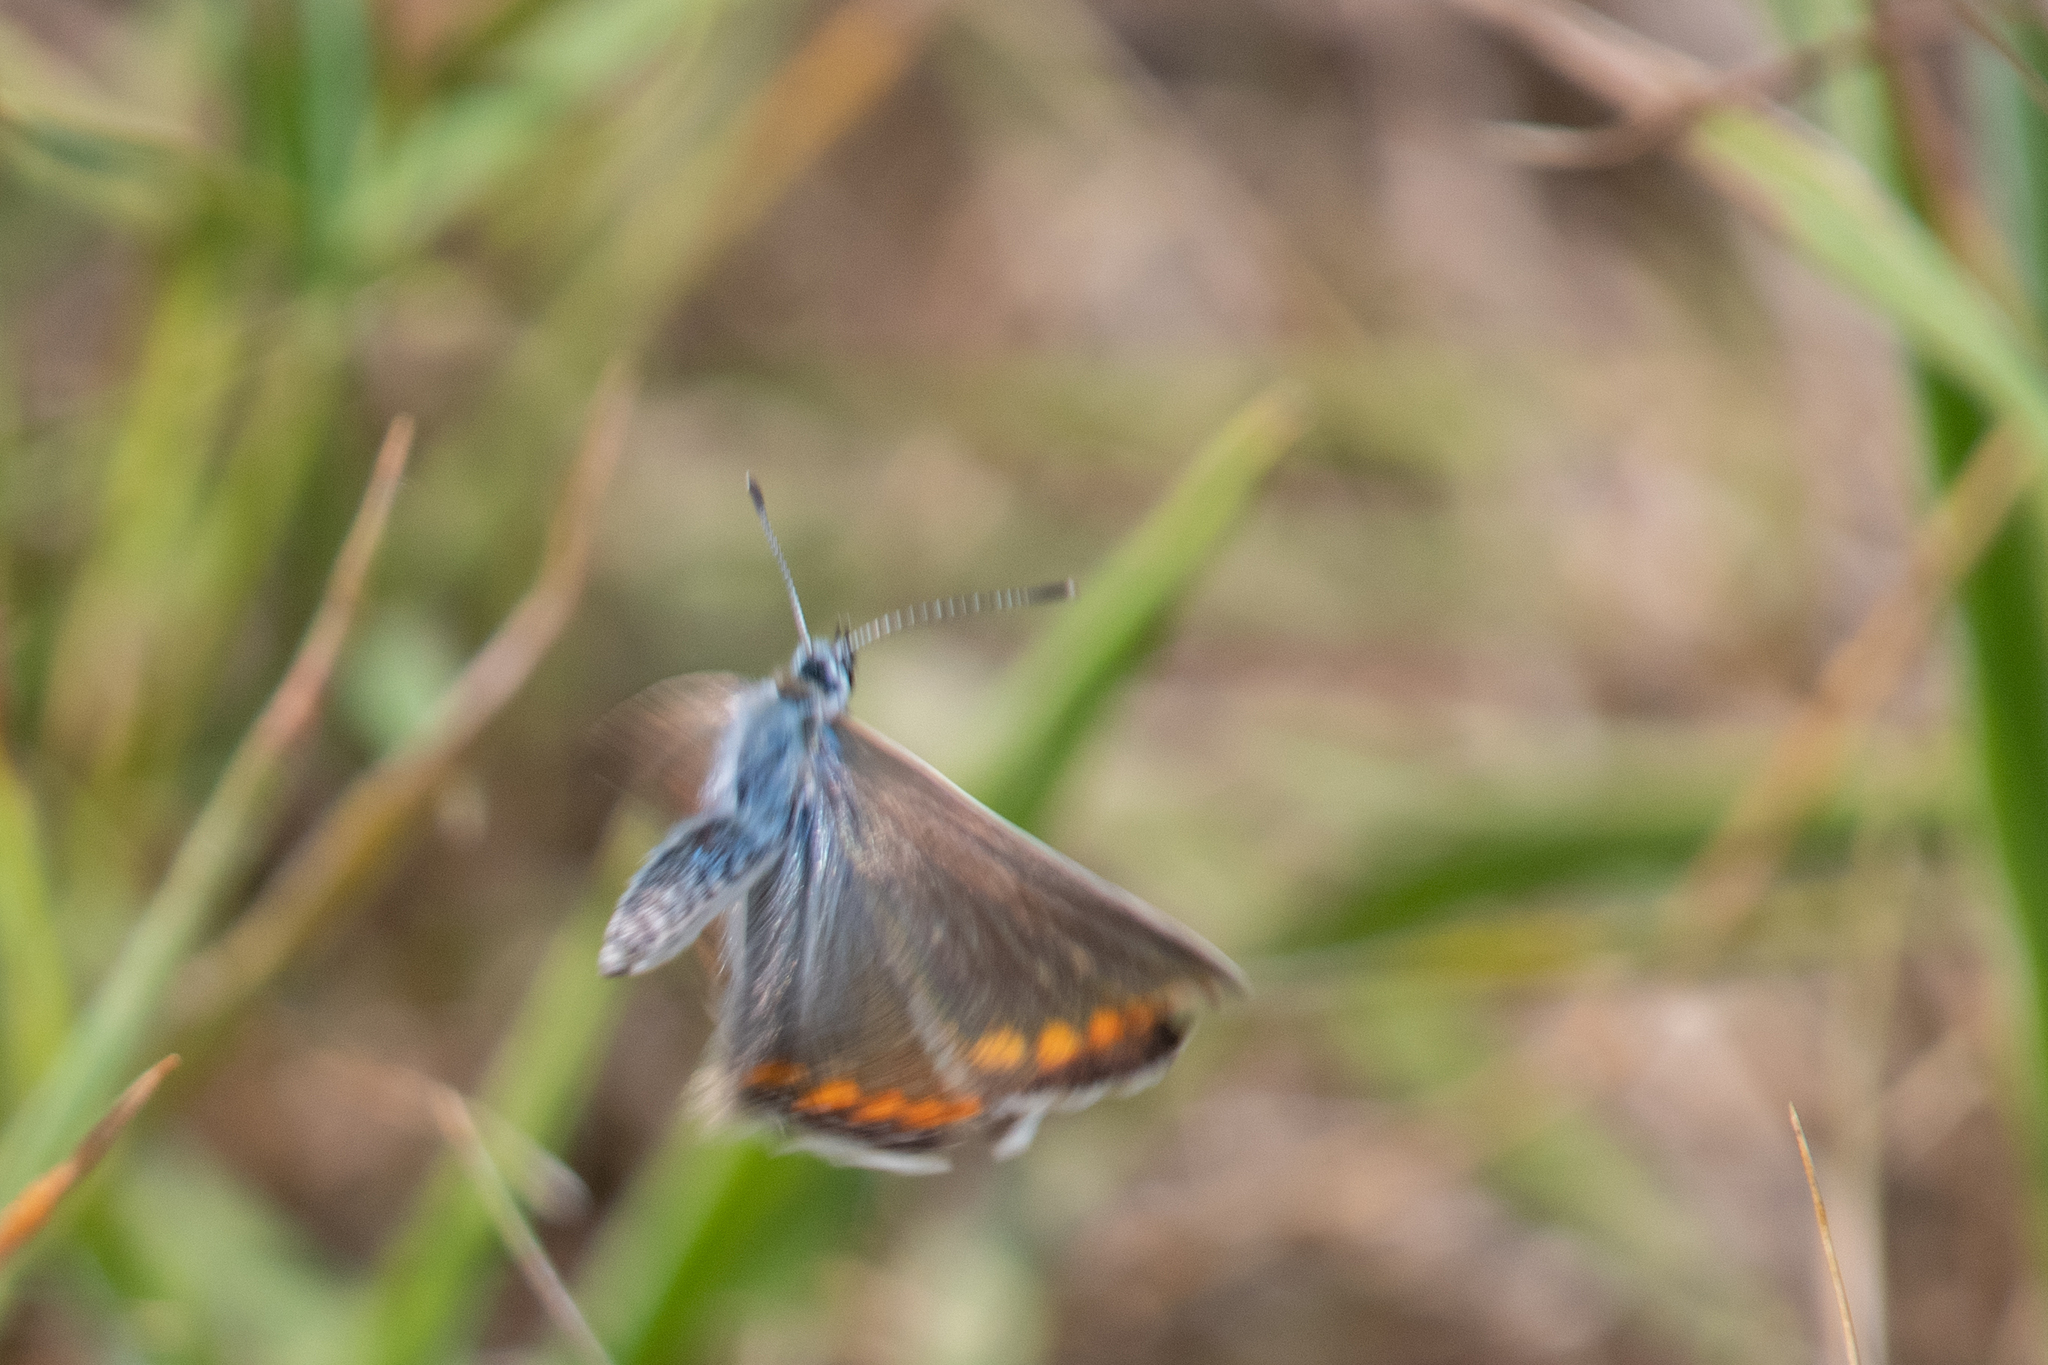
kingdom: Animalia
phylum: Arthropoda
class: Insecta
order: Lepidoptera
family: Lycaenidae
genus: Polyommatus
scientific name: Polyommatus icarus
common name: Common blue
